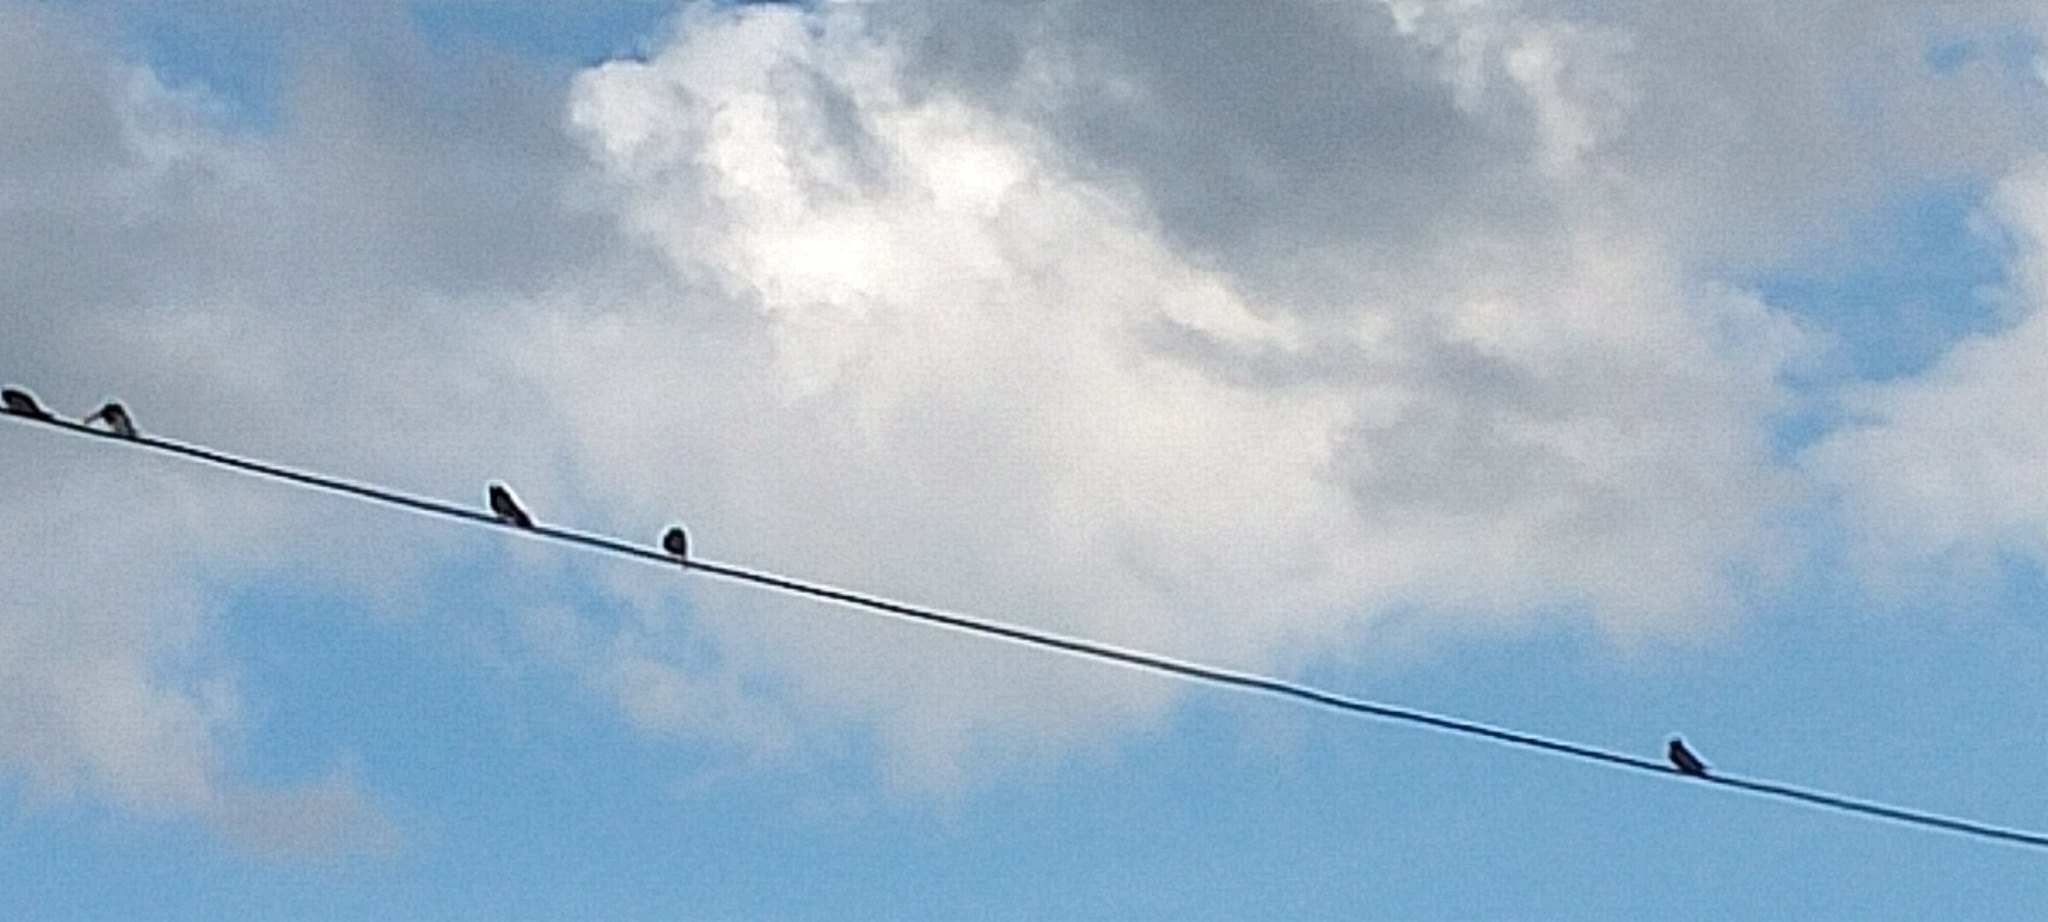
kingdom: Animalia
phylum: Chordata
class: Aves
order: Passeriformes
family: Hirundinidae
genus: Hirundo
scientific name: Hirundo tahitica
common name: Pacific swallow
